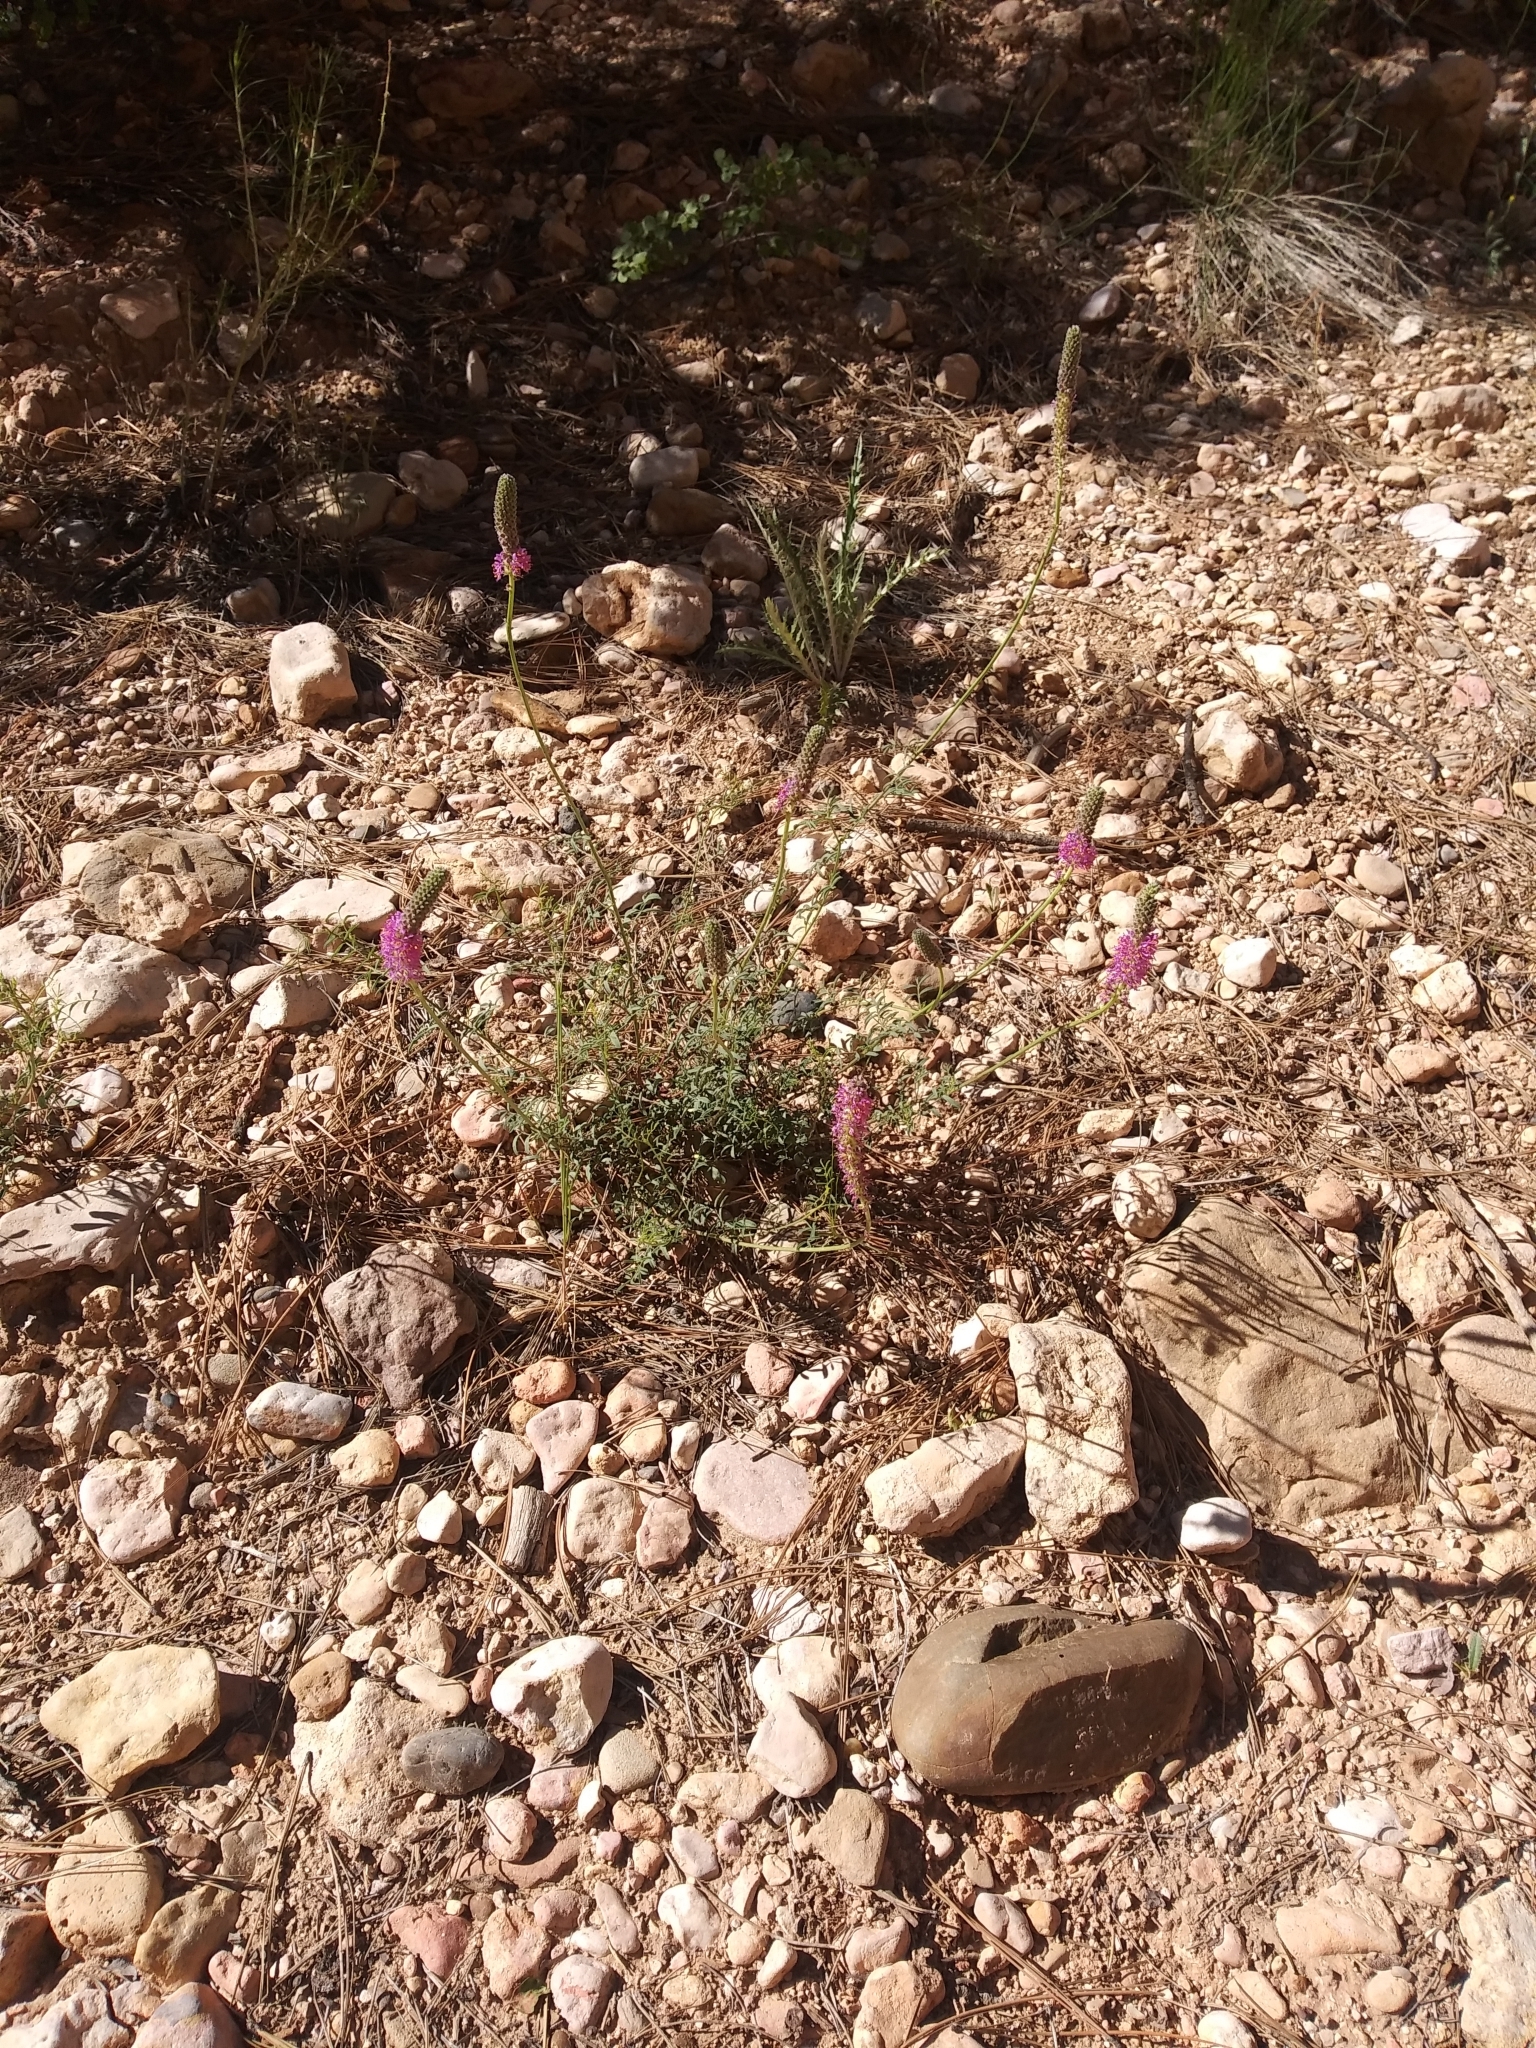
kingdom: Plantae
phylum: Tracheophyta
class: Magnoliopsida
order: Fabales
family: Fabaceae
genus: Dalea
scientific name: Dalea searlsiae
